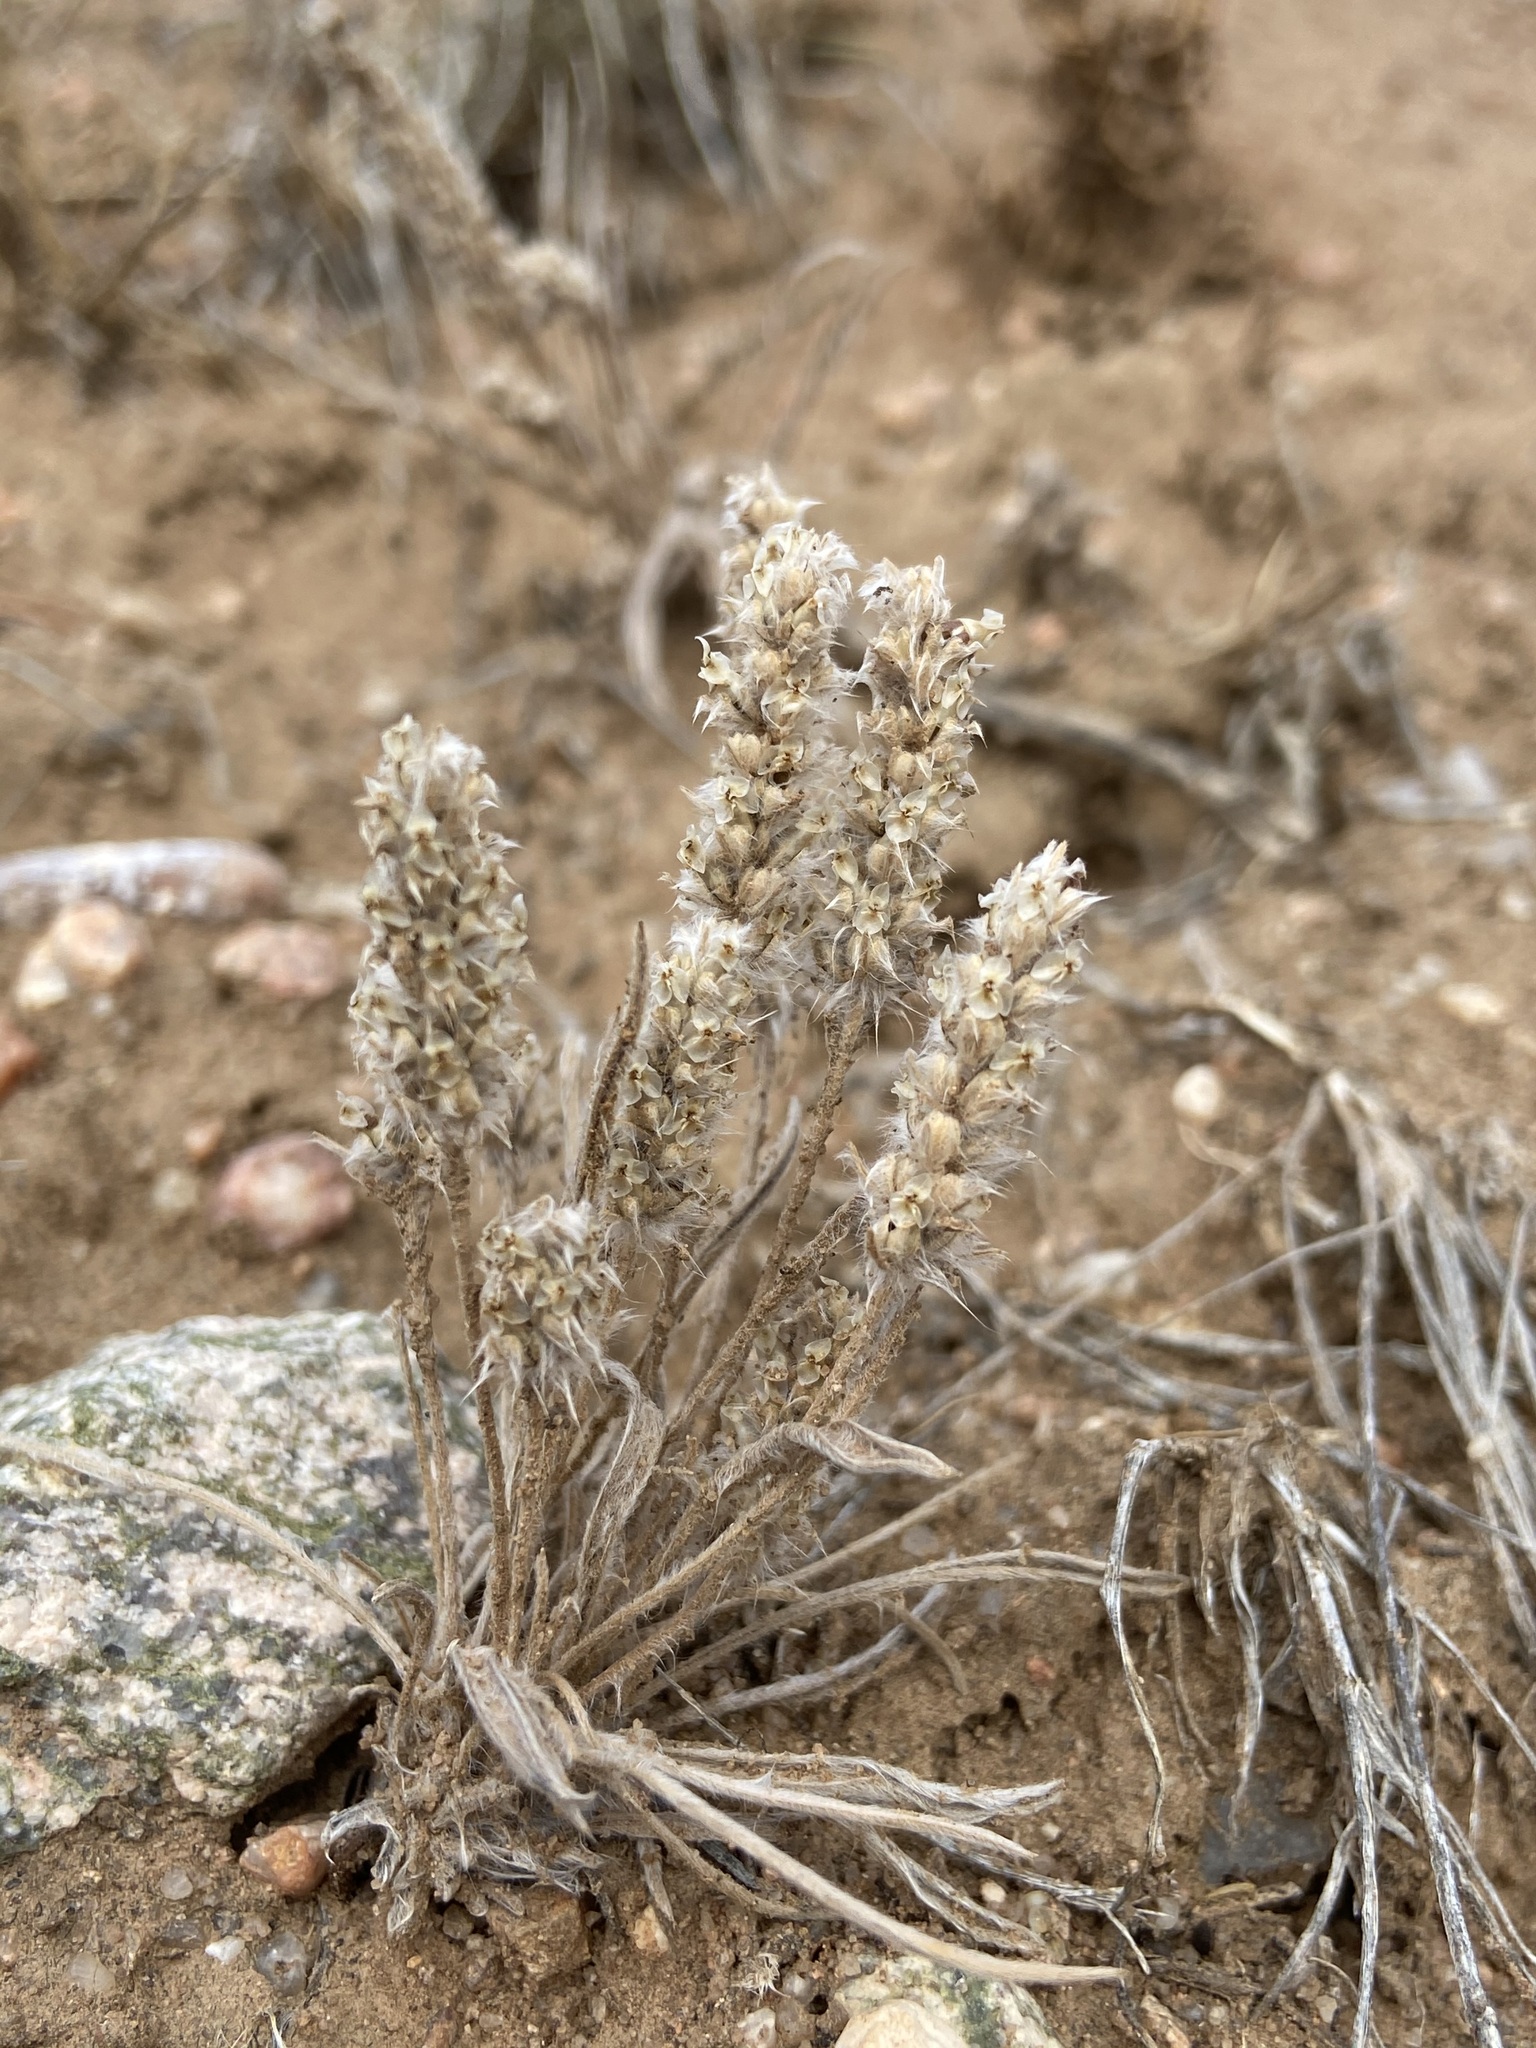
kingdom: Plantae
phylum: Tracheophyta
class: Magnoliopsida
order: Lamiales
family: Plantaginaceae
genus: Plantago
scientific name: Plantago patagonica
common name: Patagonia indian-wheat
